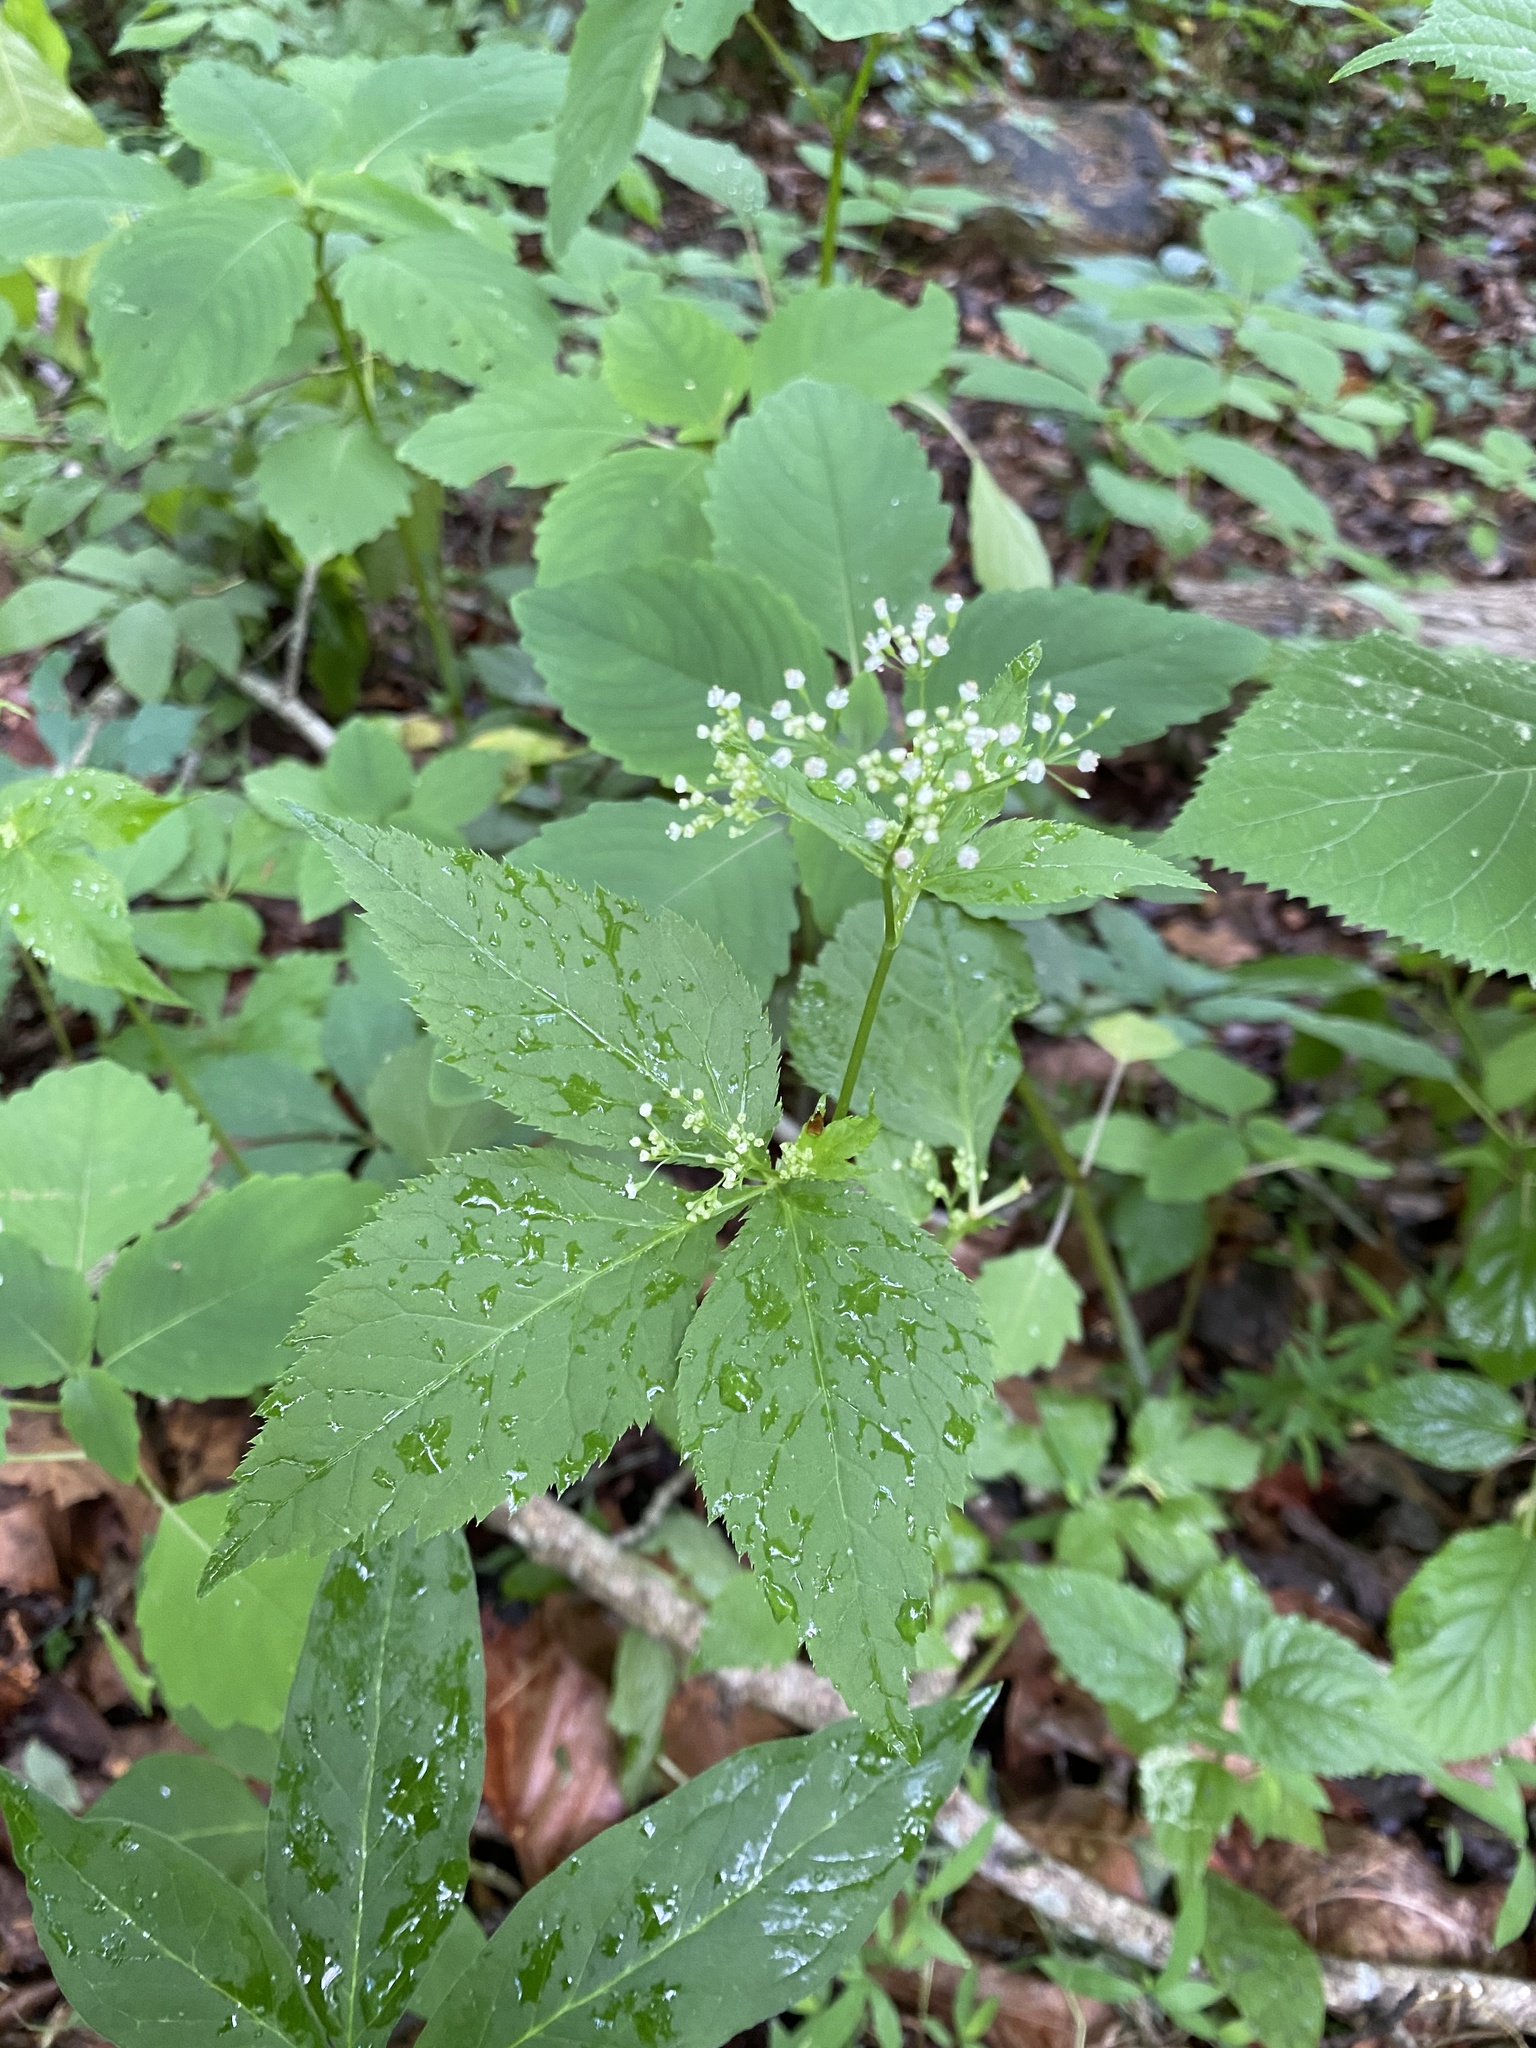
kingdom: Plantae
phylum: Tracheophyta
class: Magnoliopsida
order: Apiales
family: Apiaceae
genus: Cryptotaenia
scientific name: Cryptotaenia canadensis
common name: Honewort
